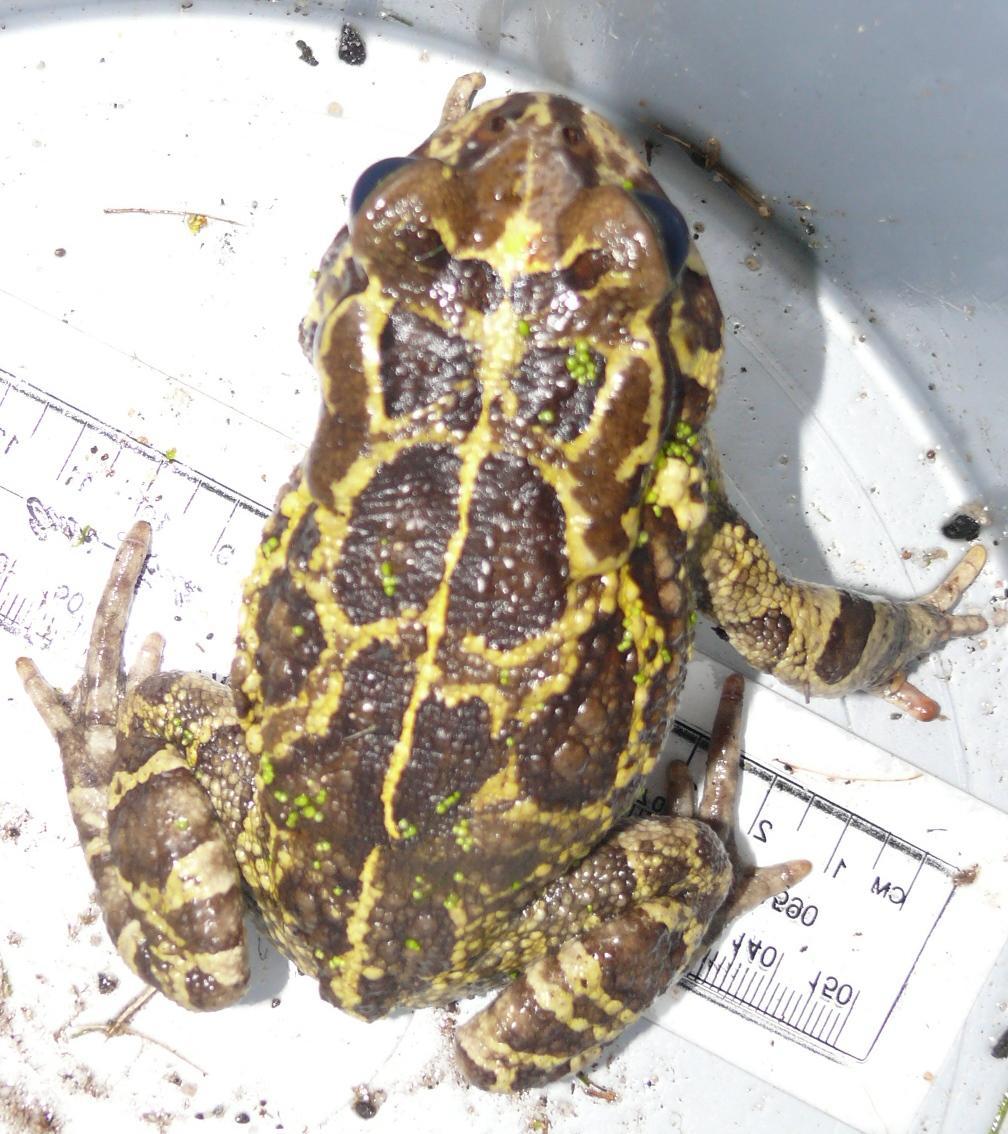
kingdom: Animalia
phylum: Chordata
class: Amphibia
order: Anura
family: Bufonidae
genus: Sclerophrys
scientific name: Sclerophrys pantherina
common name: Panther toad
